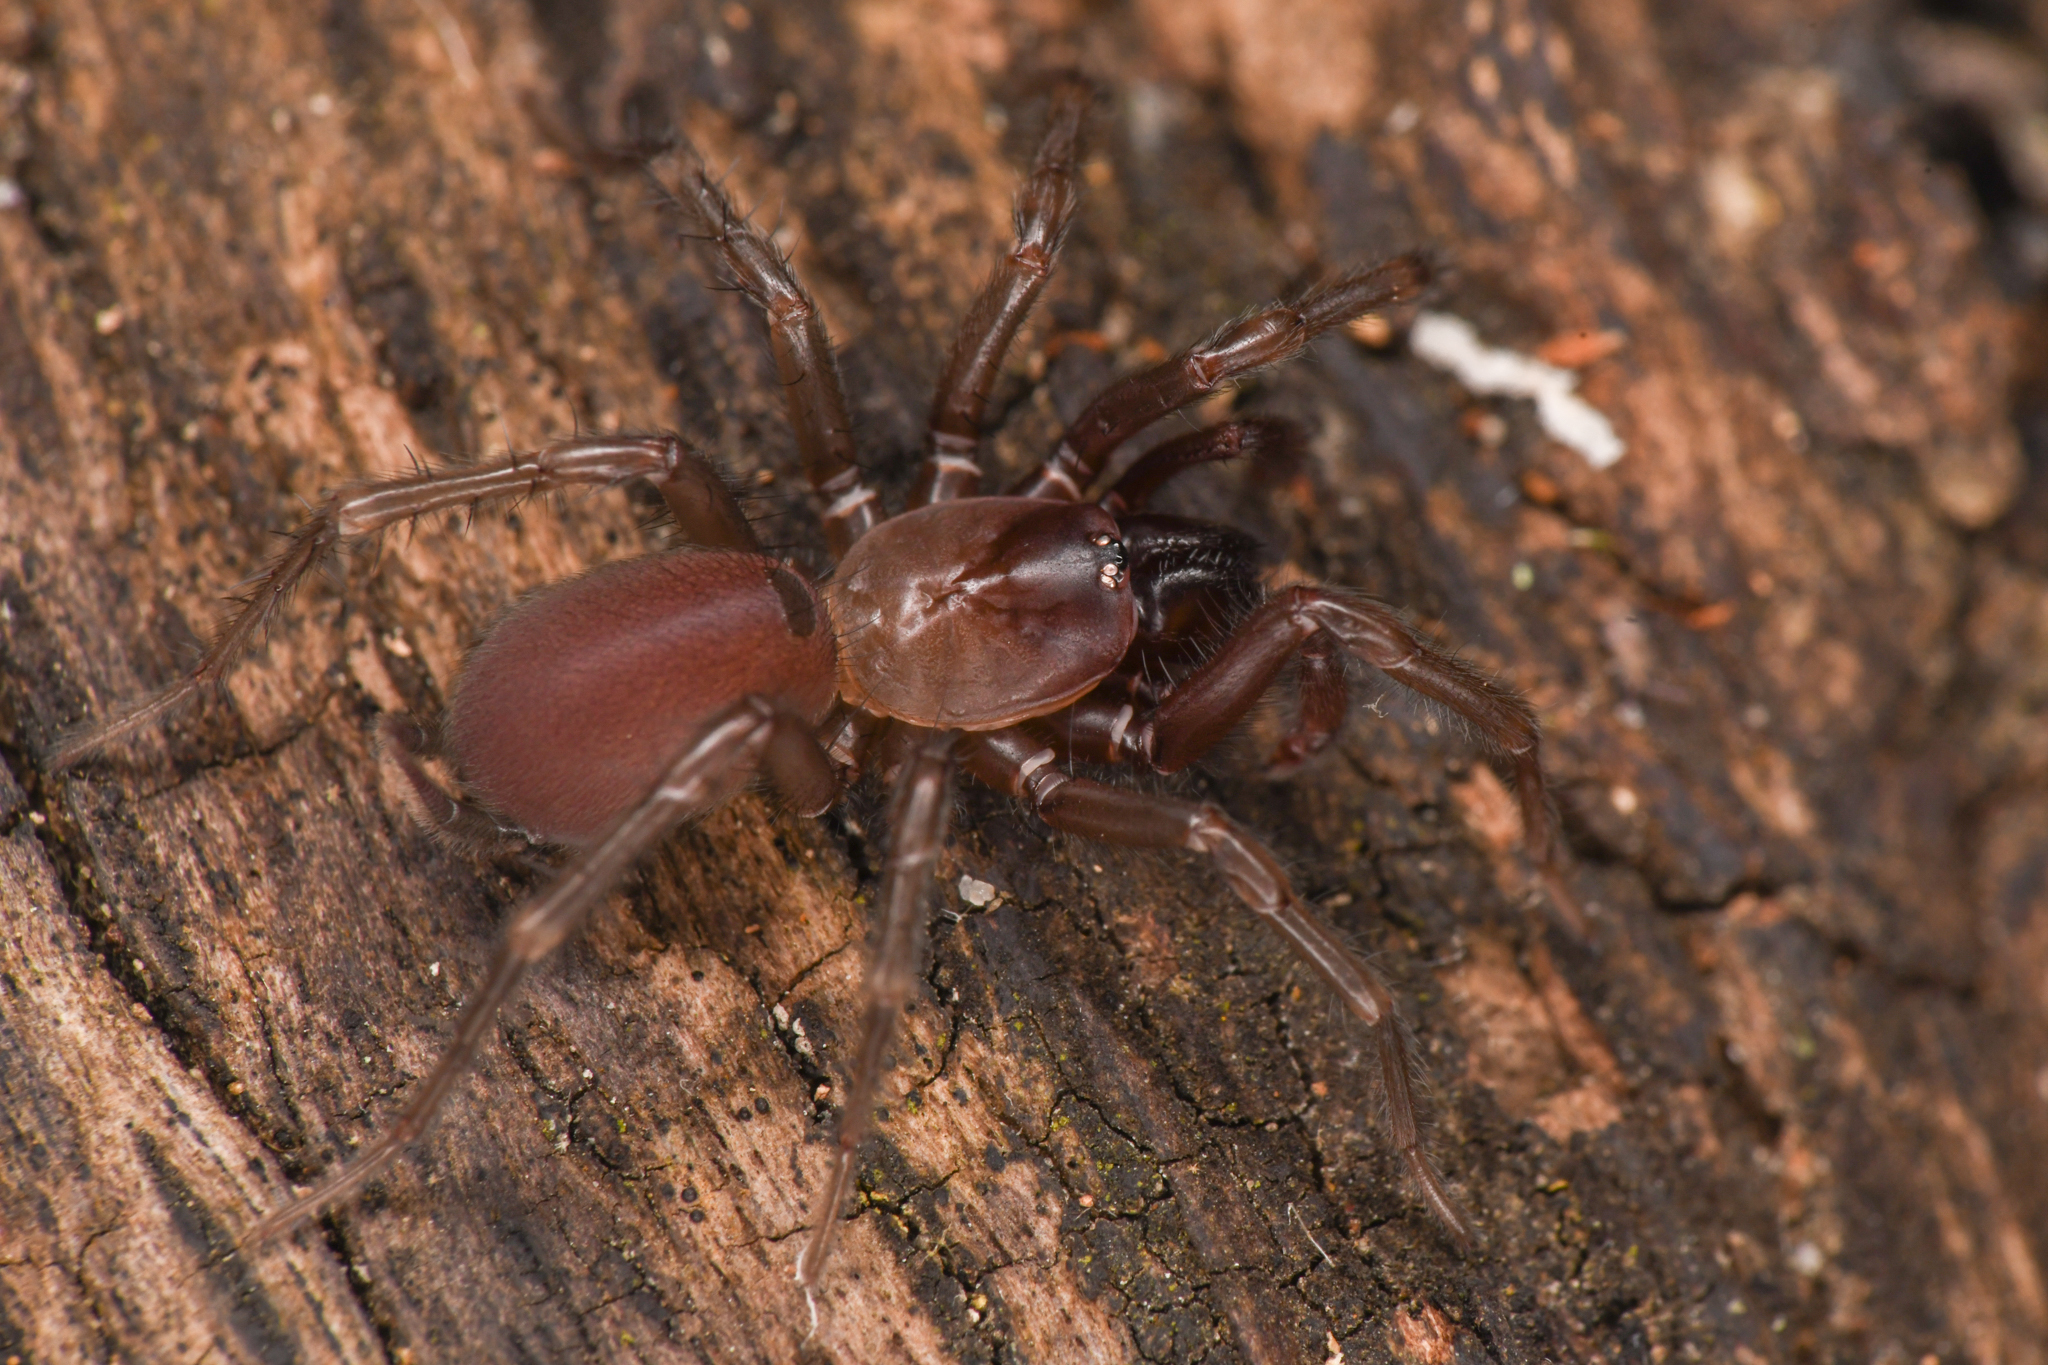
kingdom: Animalia
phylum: Arthropoda
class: Arachnida
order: Araneae
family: Megahexuridae
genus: Megahexura
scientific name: Megahexura fulva
